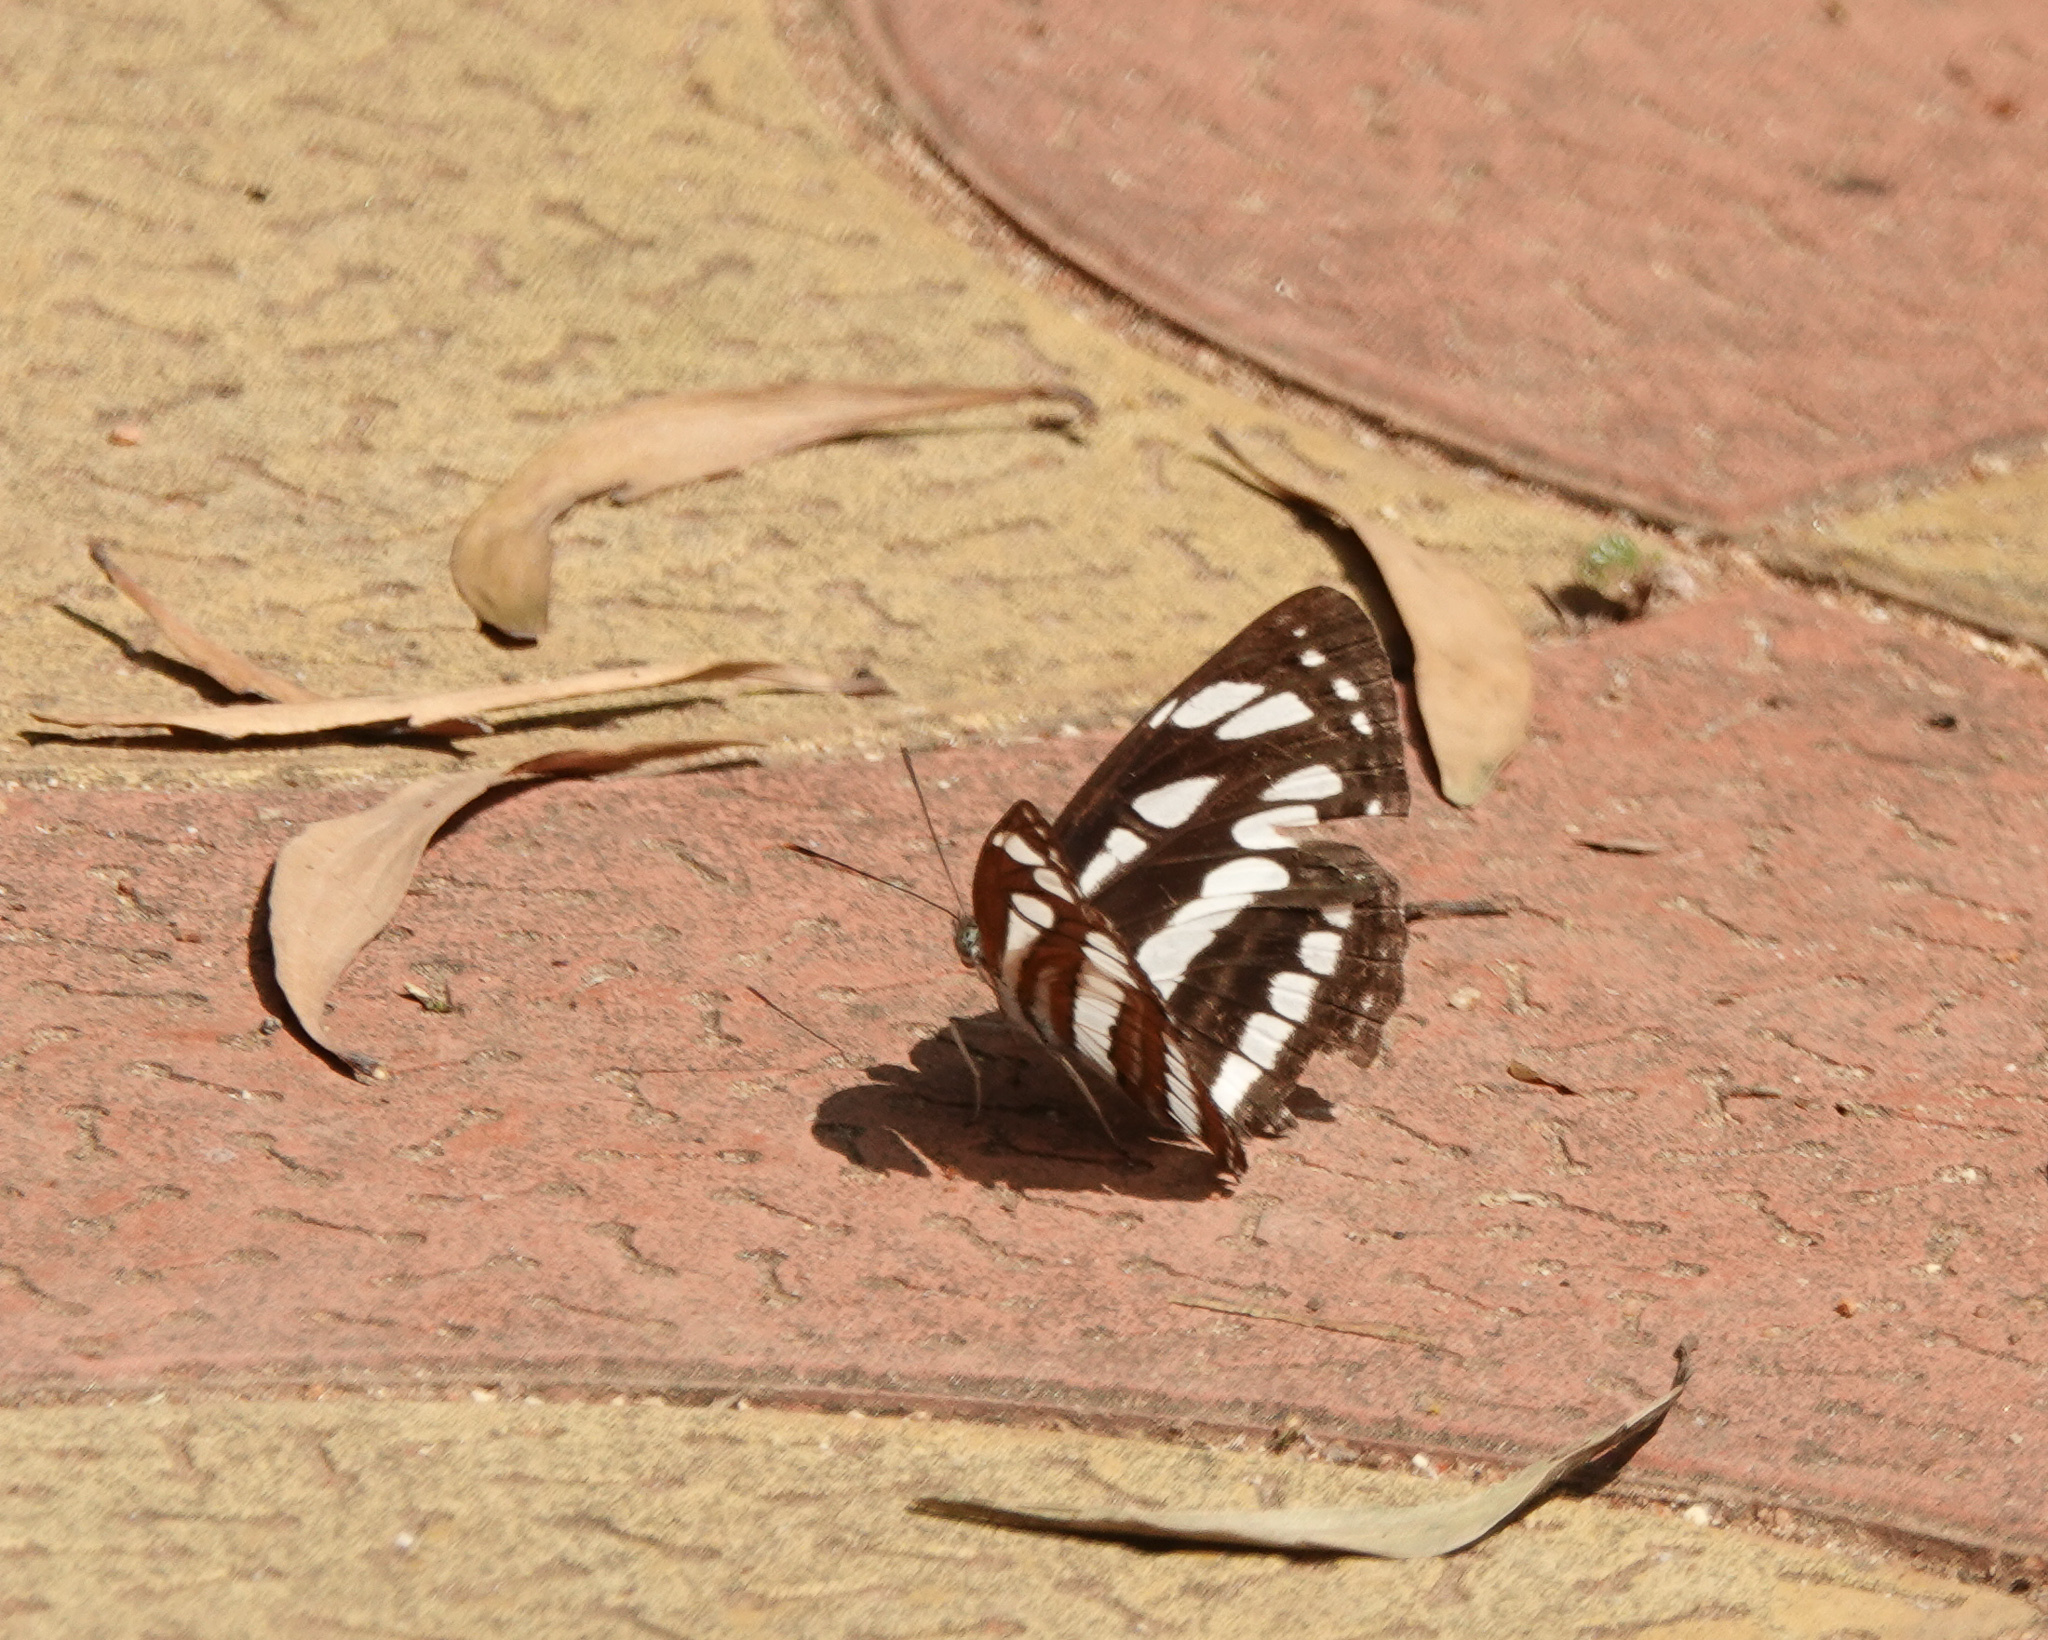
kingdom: Animalia
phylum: Arthropoda
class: Insecta
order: Lepidoptera
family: Nymphalidae
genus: Neptis
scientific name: Neptis hylas
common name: Common sailer
